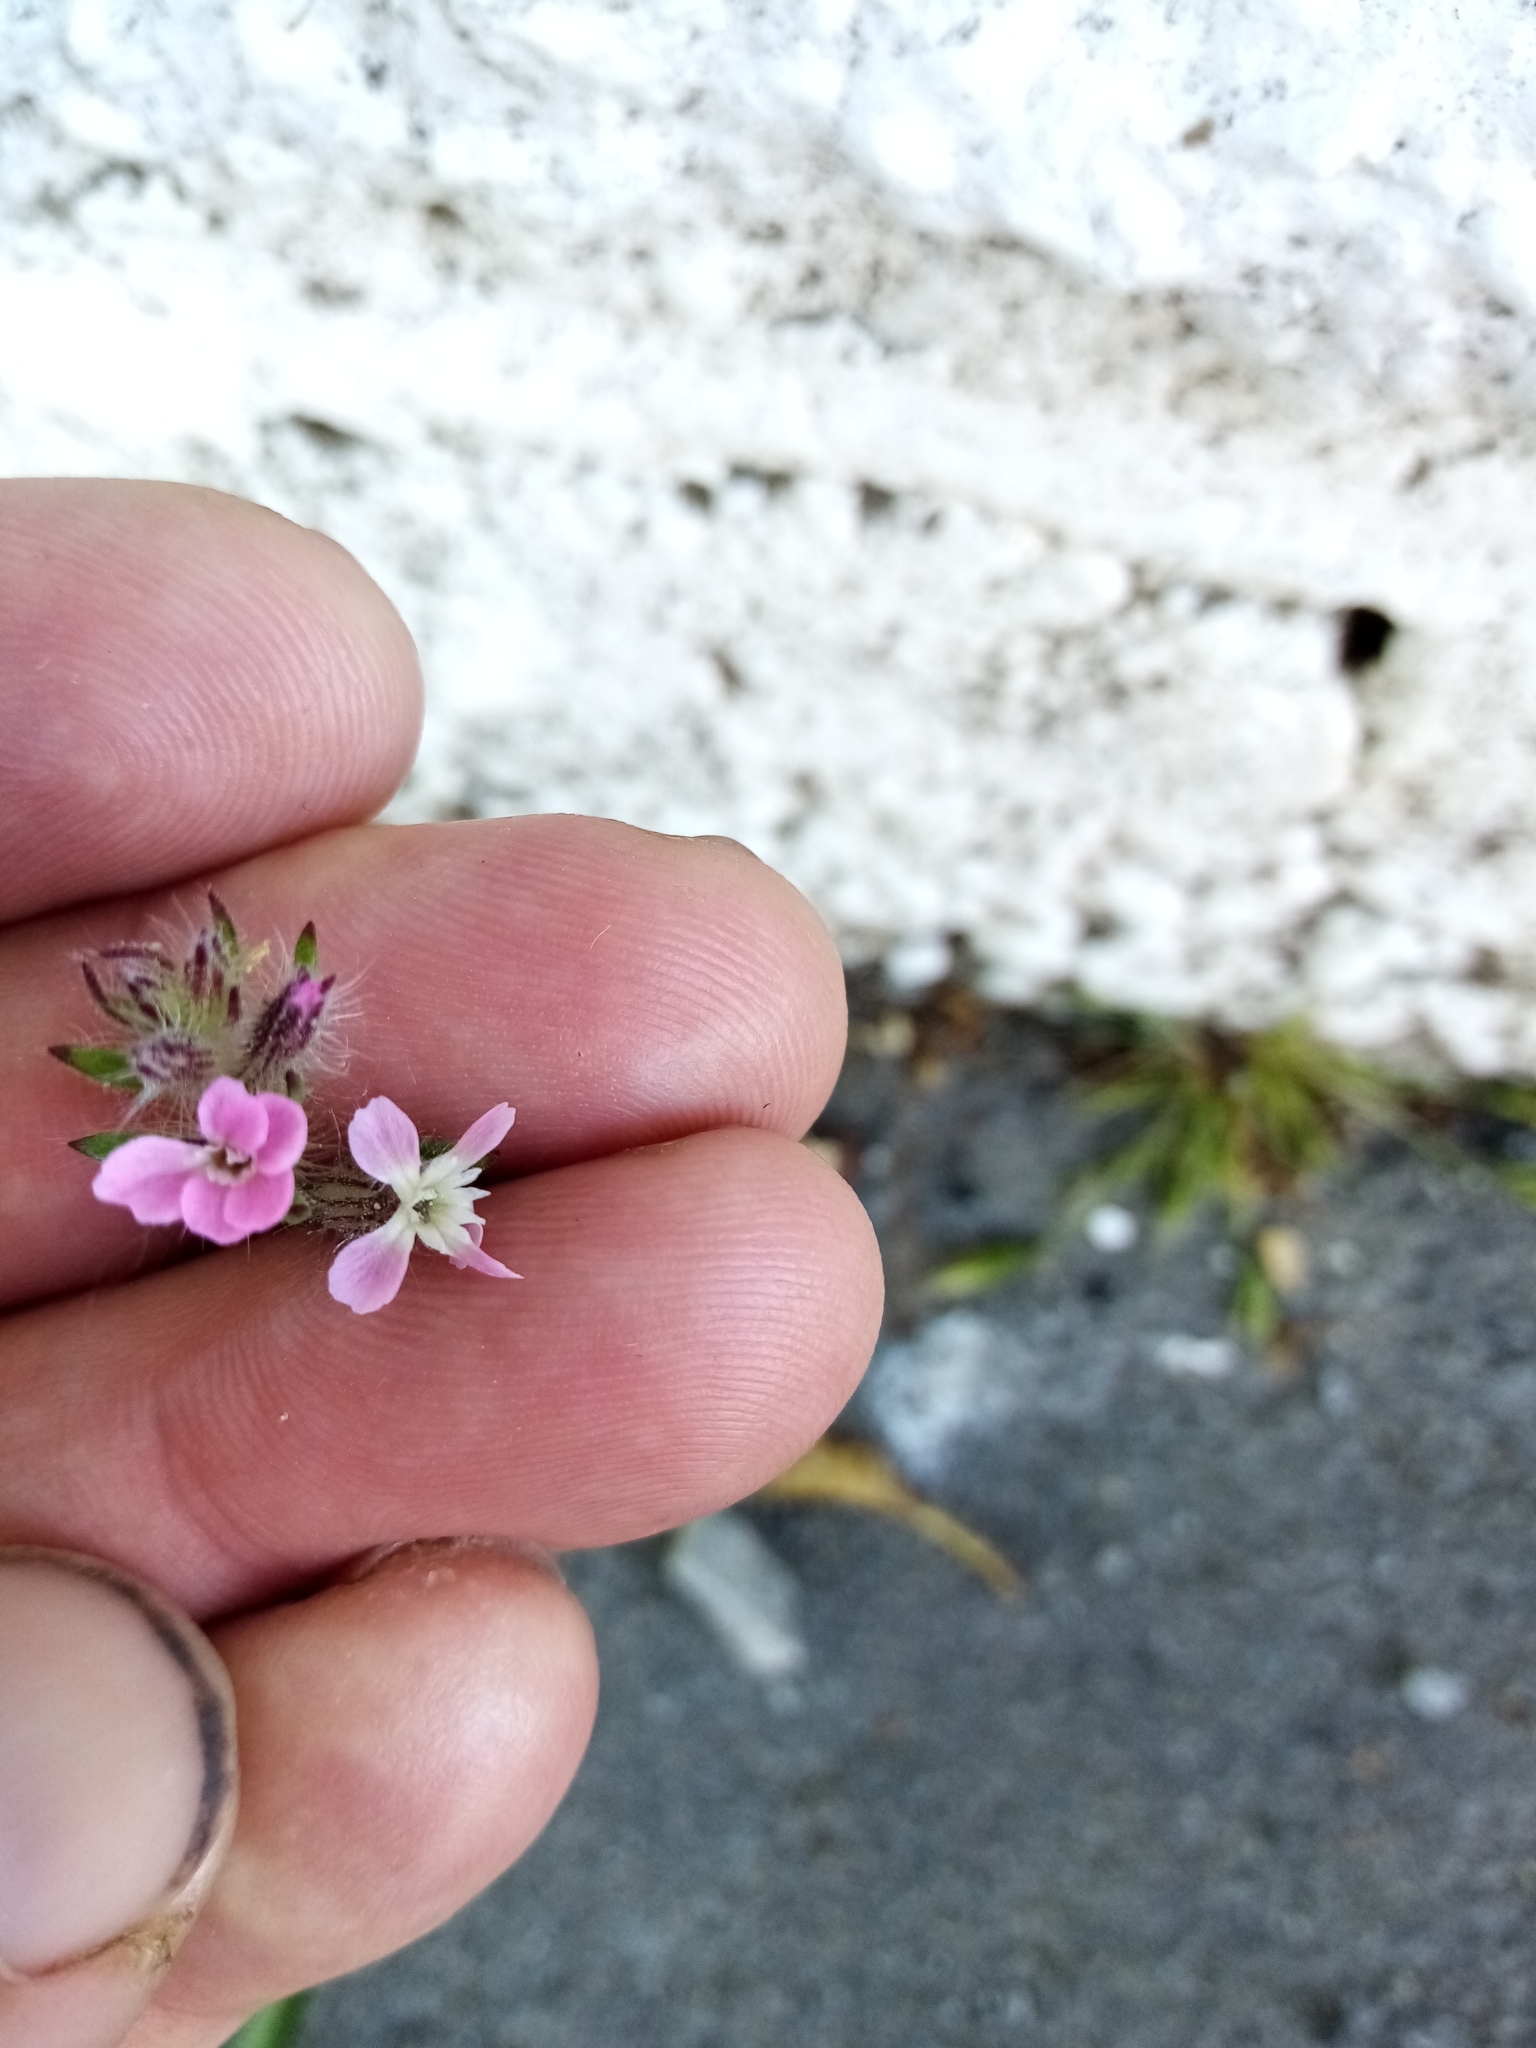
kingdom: Plantae
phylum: Tracheophyta
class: Magnoliopsida
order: Caryophyllales
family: Caryophyllaceae
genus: Silene
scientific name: Silene gallica
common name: Small-flowered catchfly
